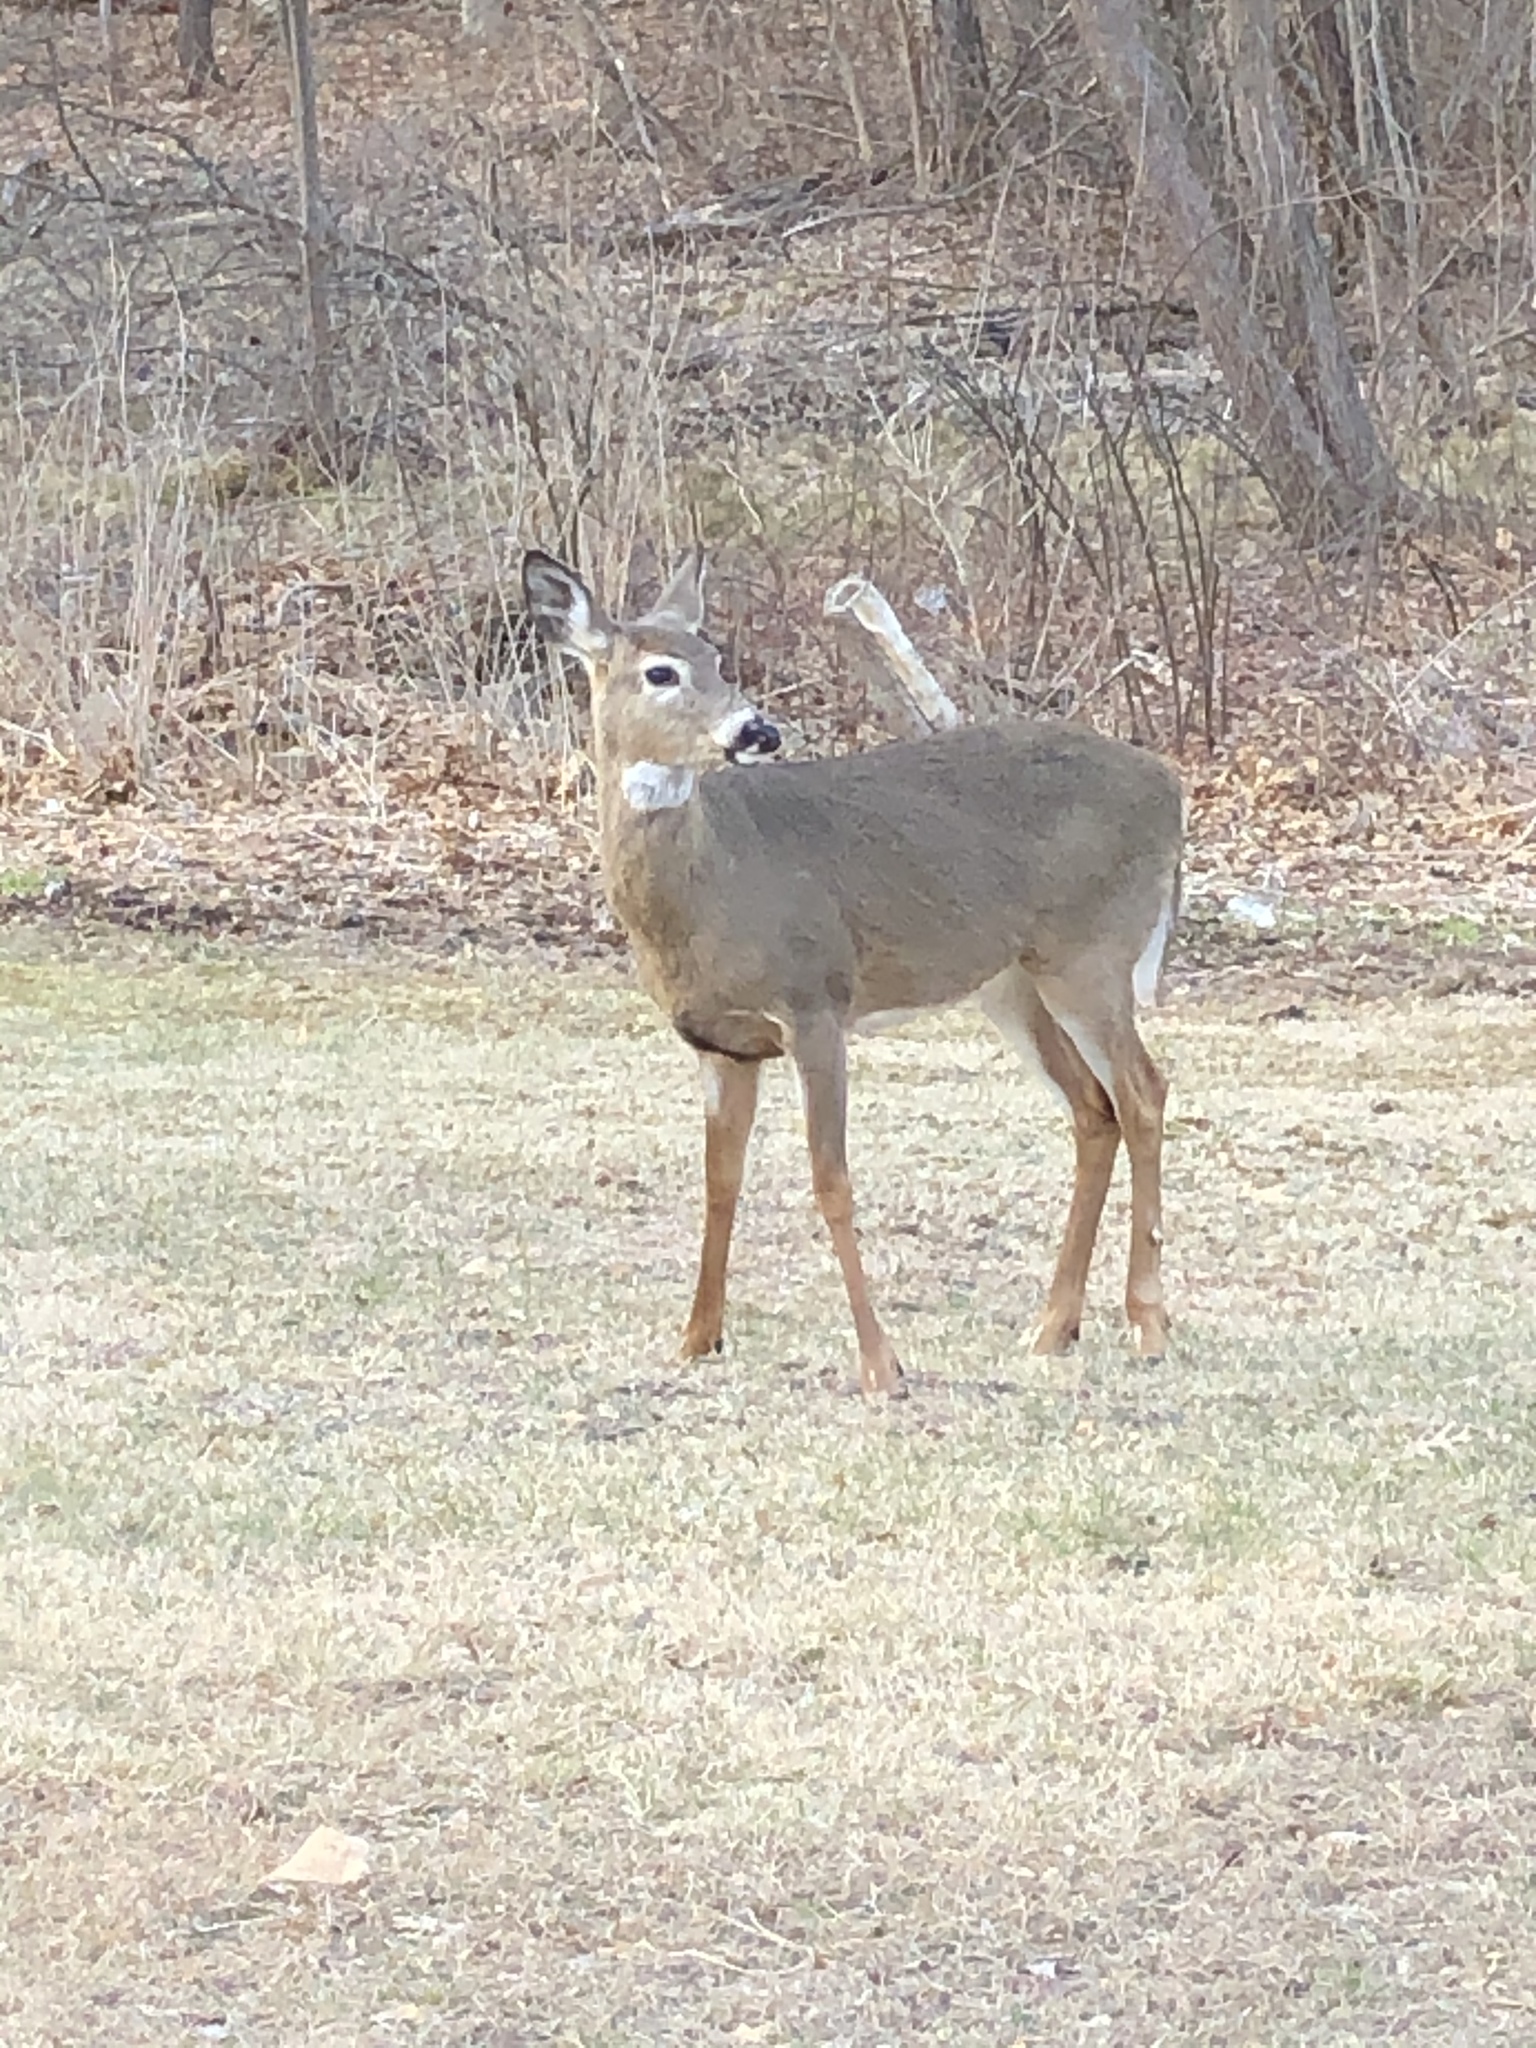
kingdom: Animalia
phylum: Chordata
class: Mammalia
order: Artiodactyla
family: Cervidae
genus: Odocoileus
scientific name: Odocoileus virginianus
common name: White-tailed deer
